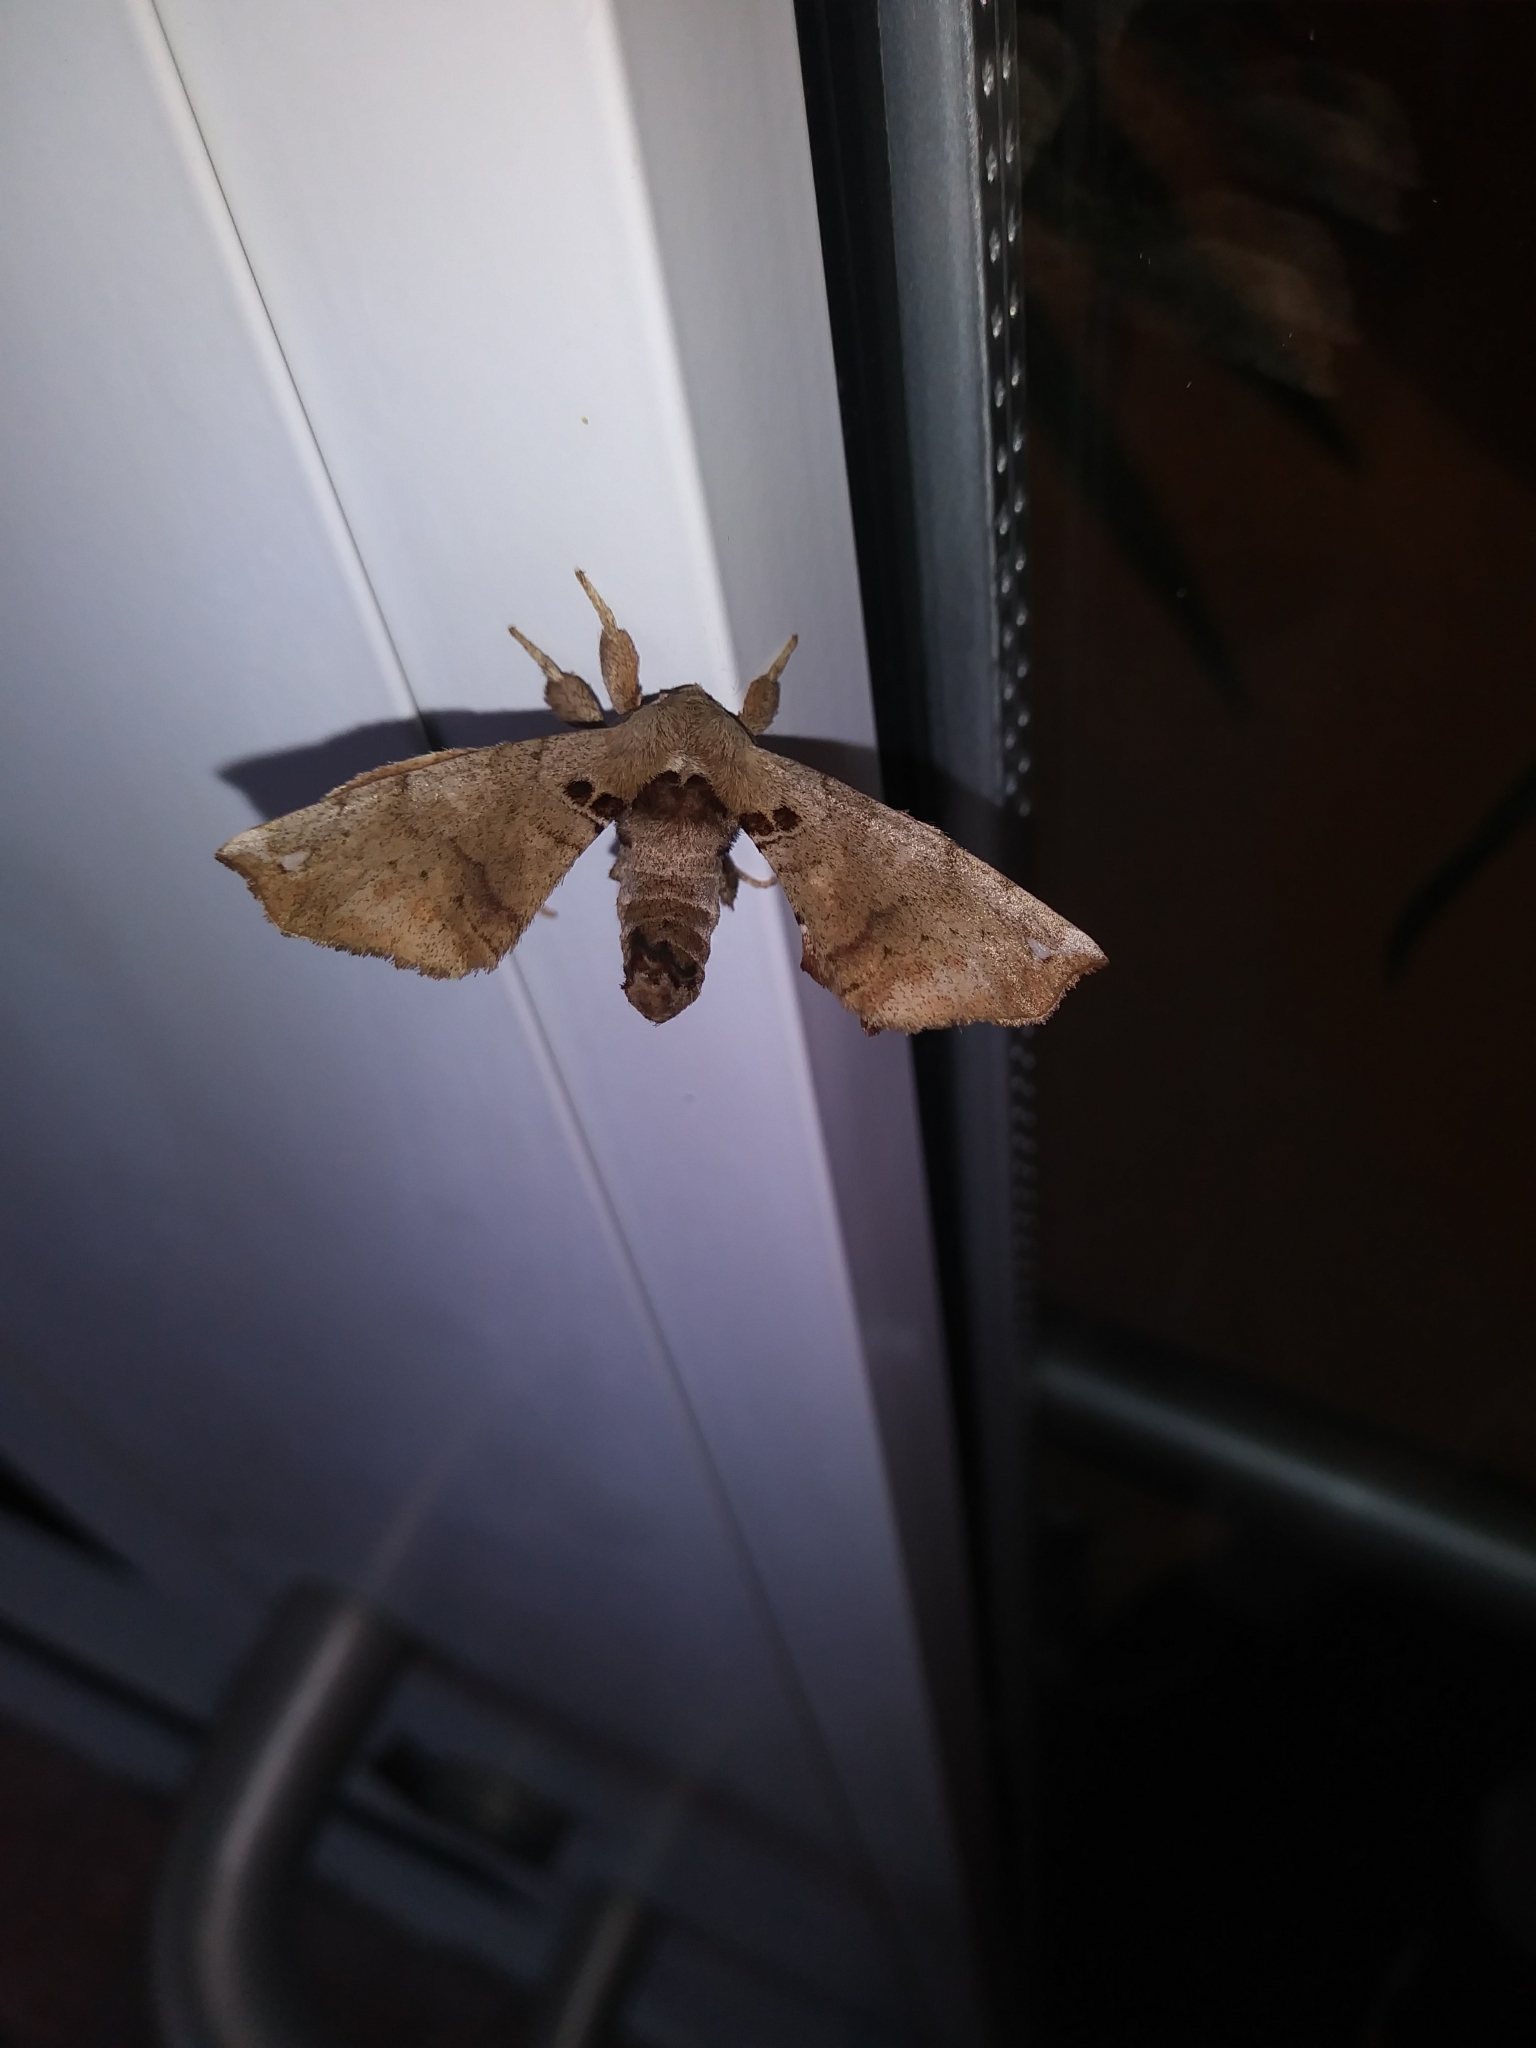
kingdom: Animalia
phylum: Arthropoda
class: Insecta
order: Lepidoptera
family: Apatelodidae
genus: Hygrochroa
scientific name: Hygrochroa Apatelodes torrefacta
